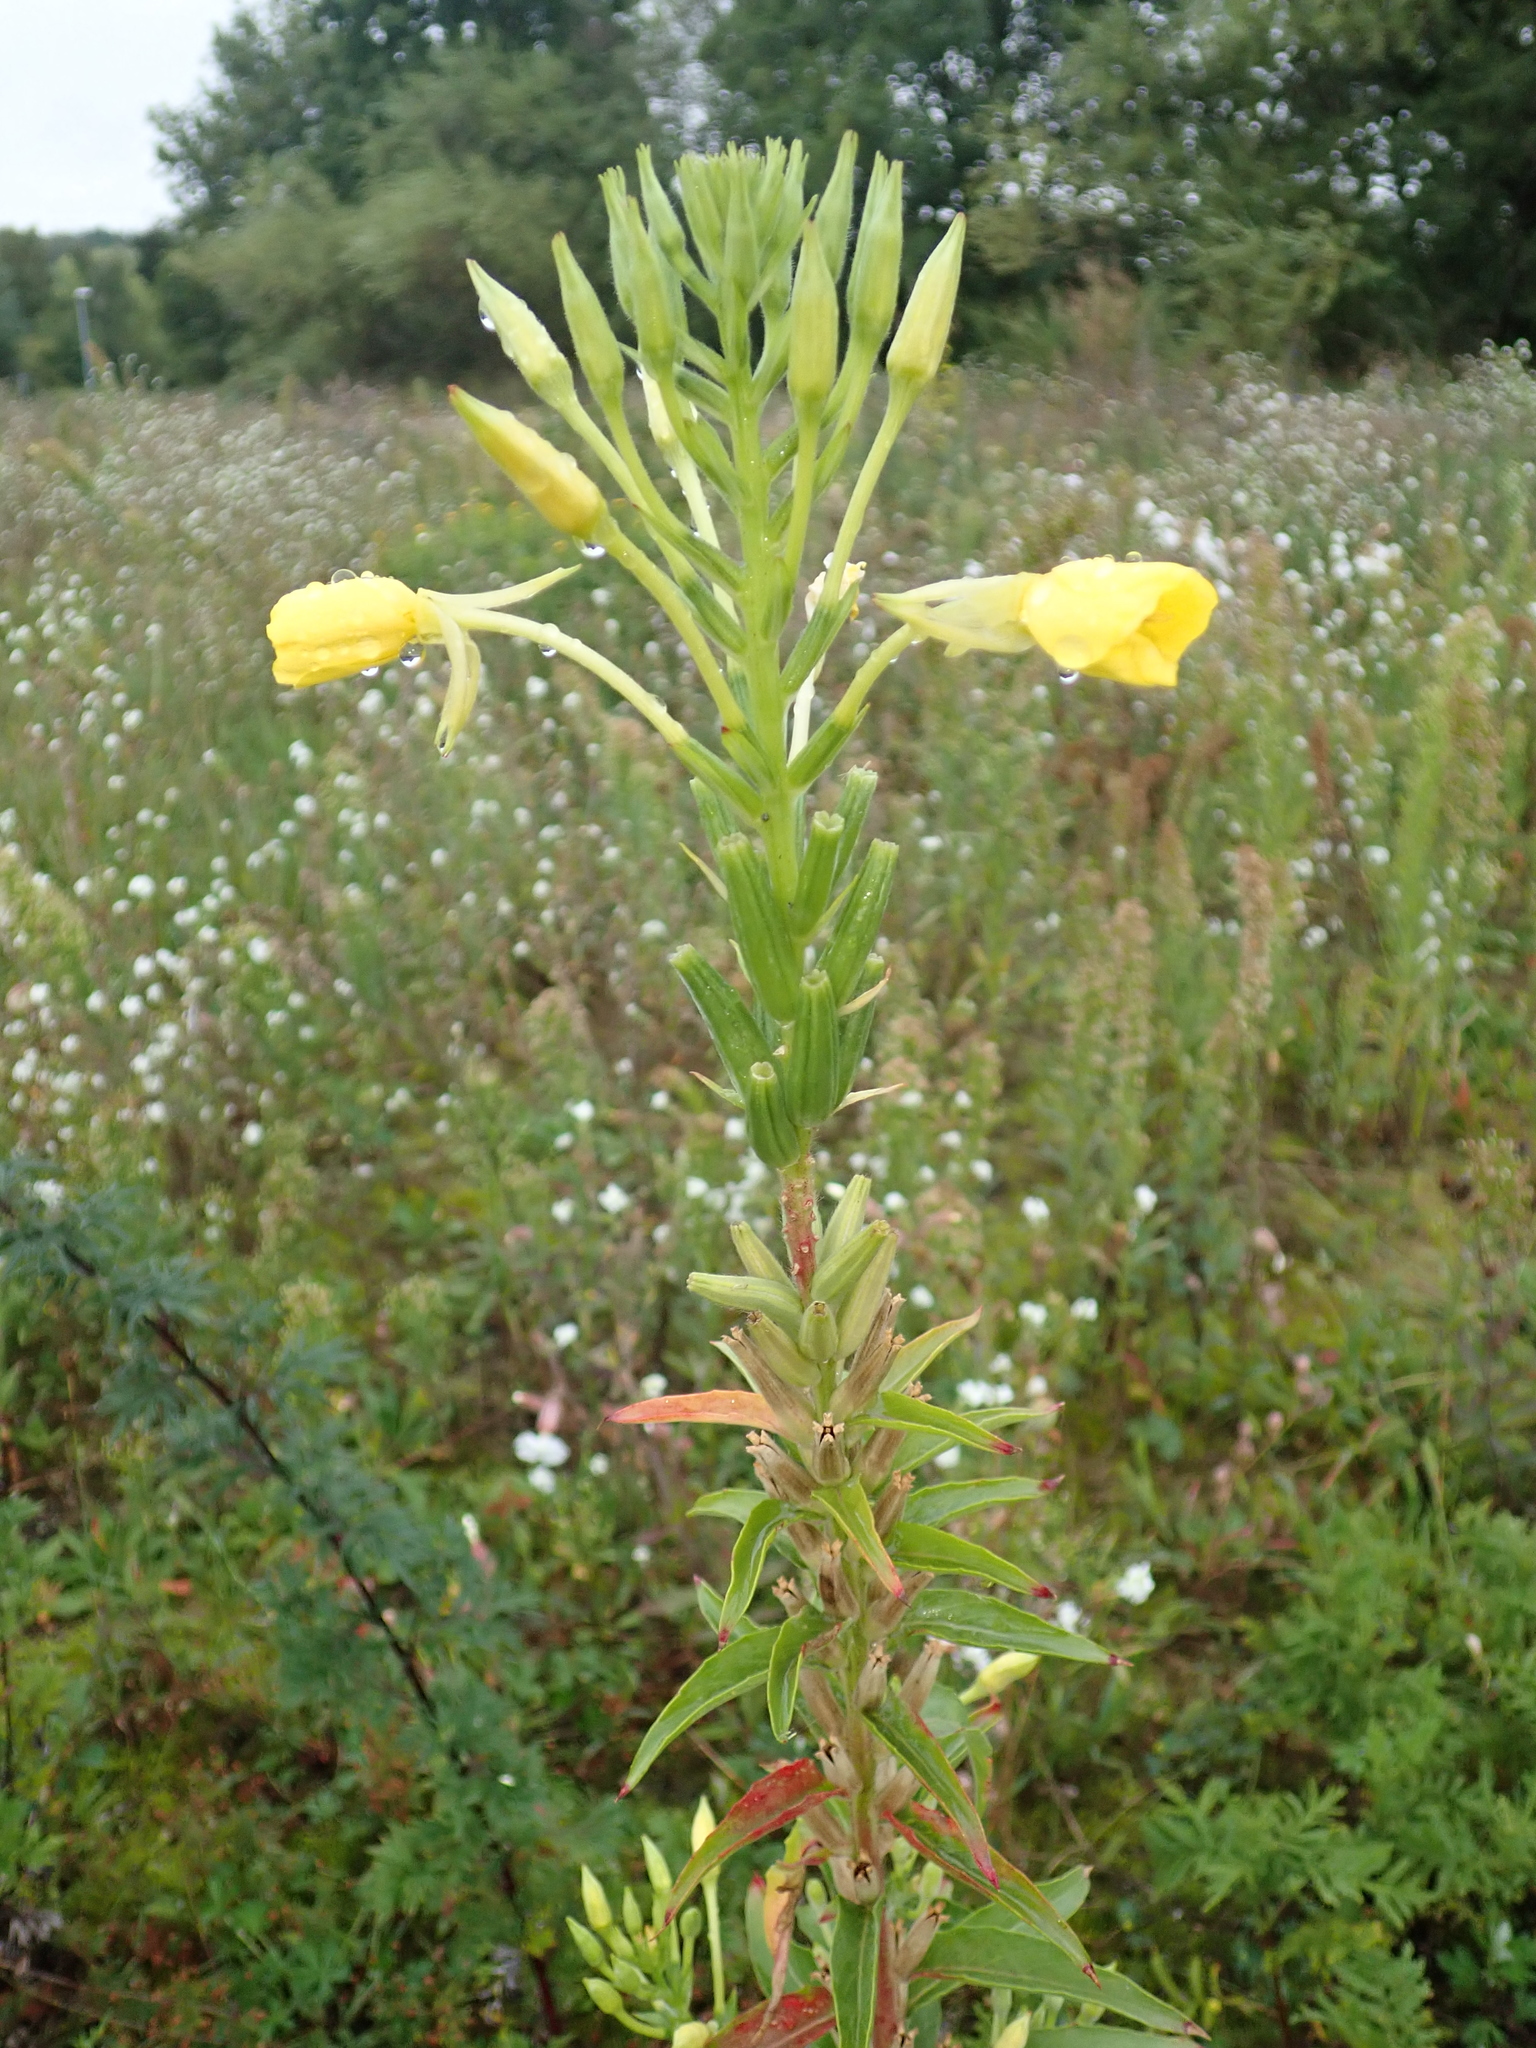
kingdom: Plantae
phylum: Tracheophyta
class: Magnoliopsida
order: Myrtales
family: Onagraceae
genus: Oenothera
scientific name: Oenothera biennis
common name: Common evening-primrose
